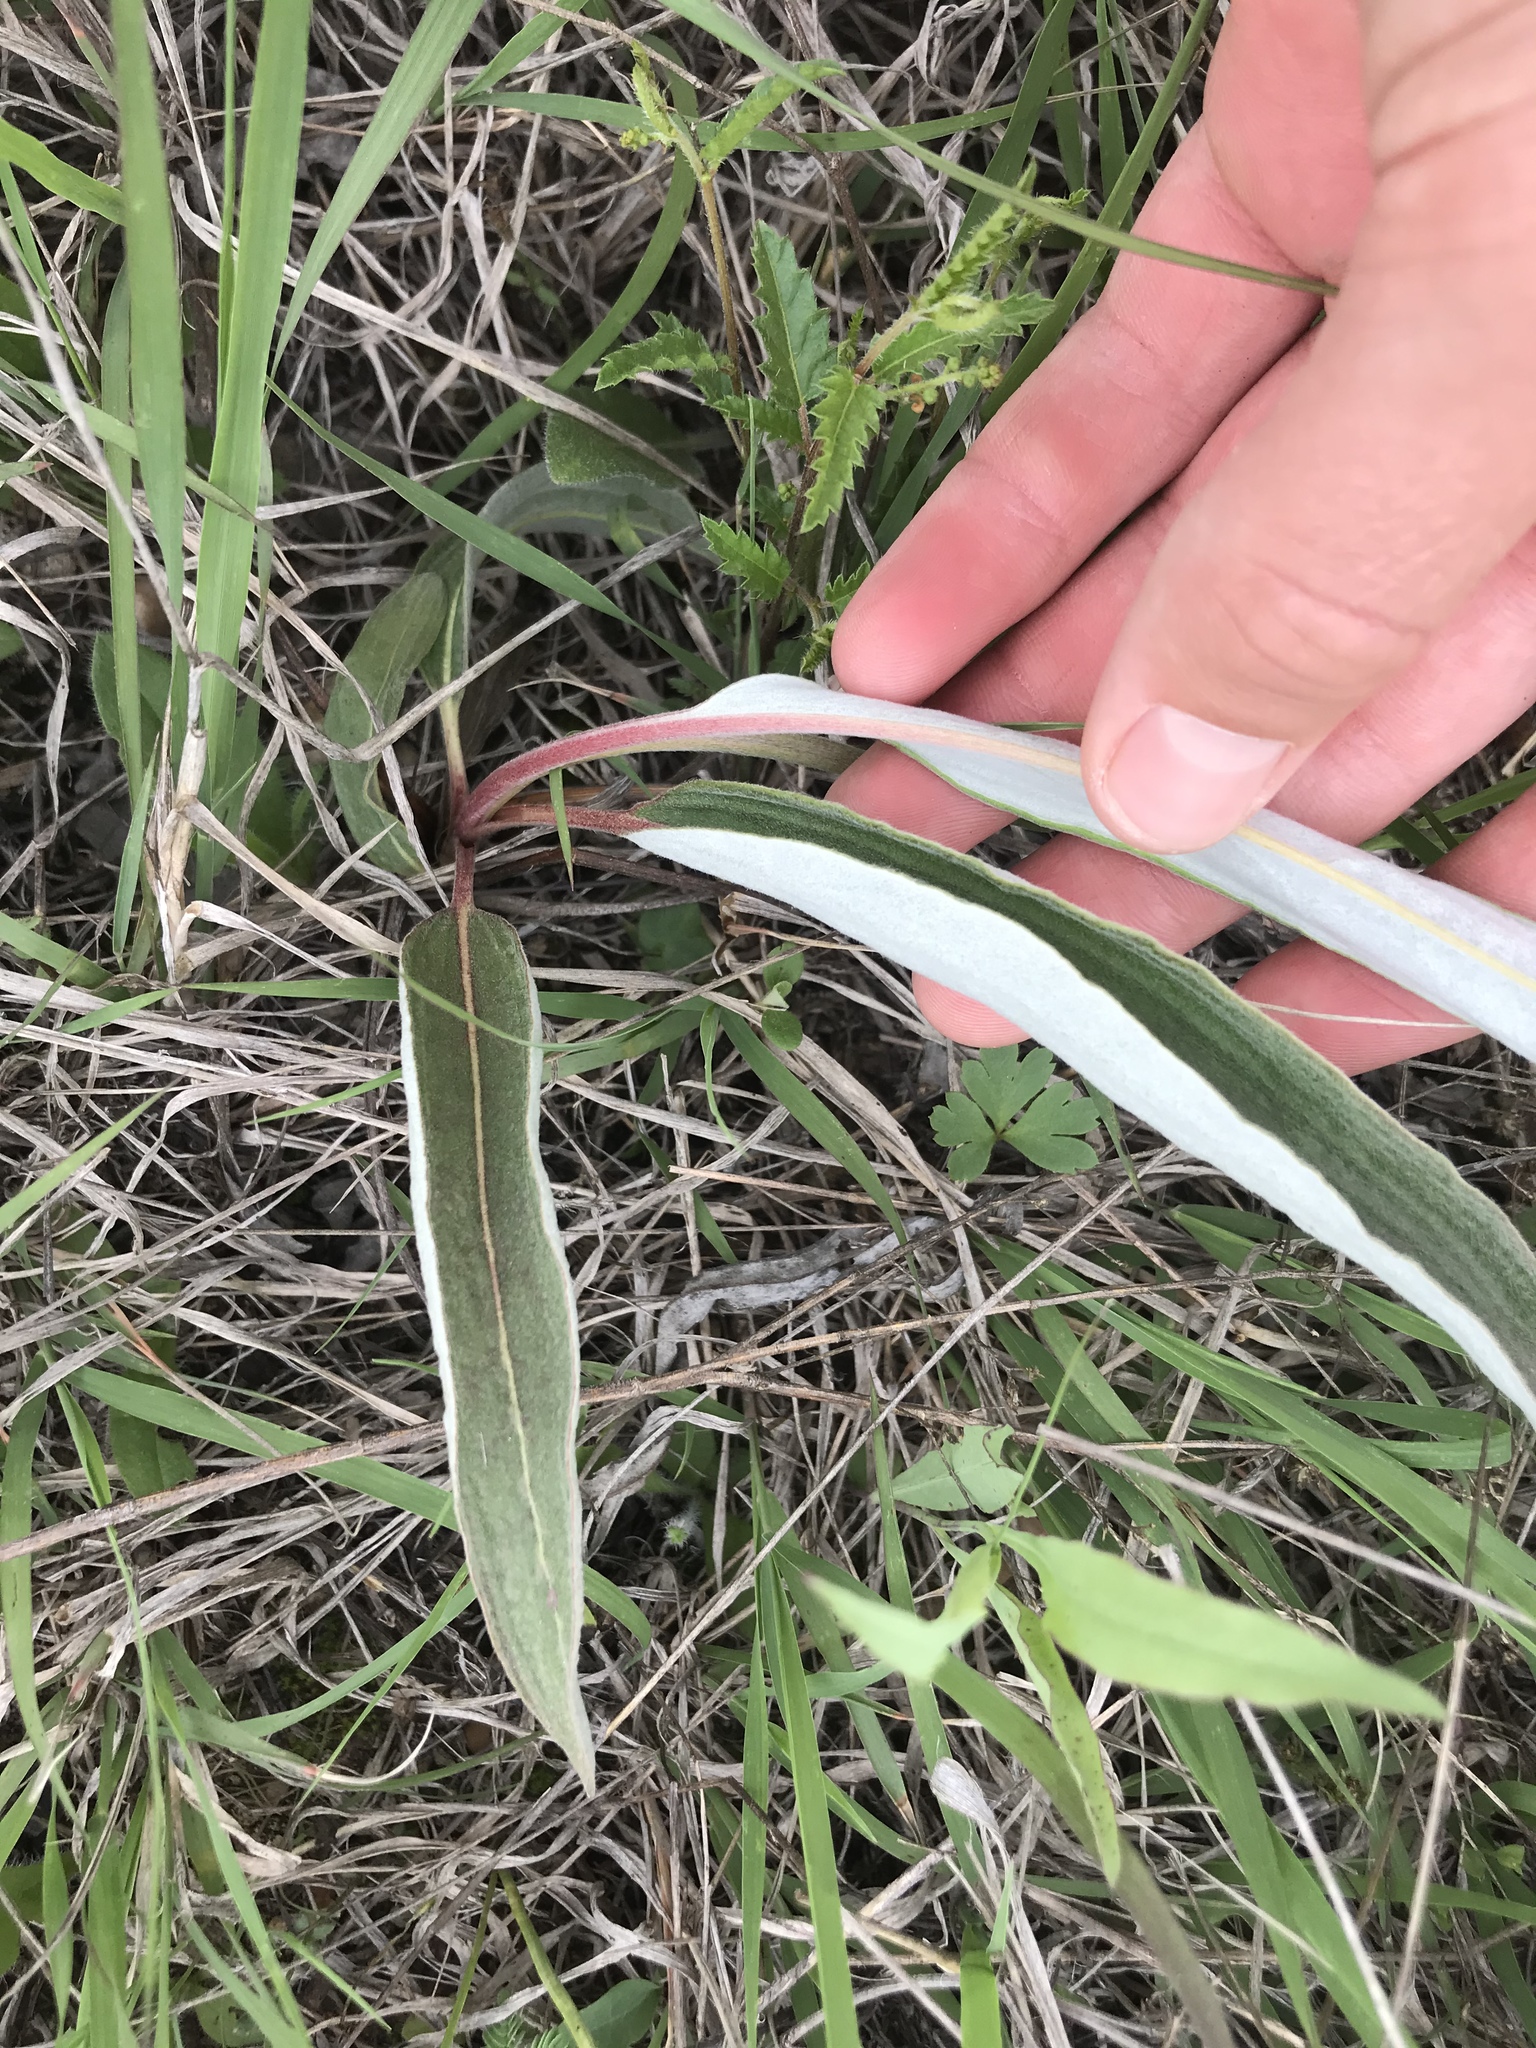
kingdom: Plantae
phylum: Tracheophyta
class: Magnoliopsida
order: Caryophyllales
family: Polygonaceae
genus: Eriogonum
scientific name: Eriogonum longifolium
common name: Longleaf wild buckwheat
